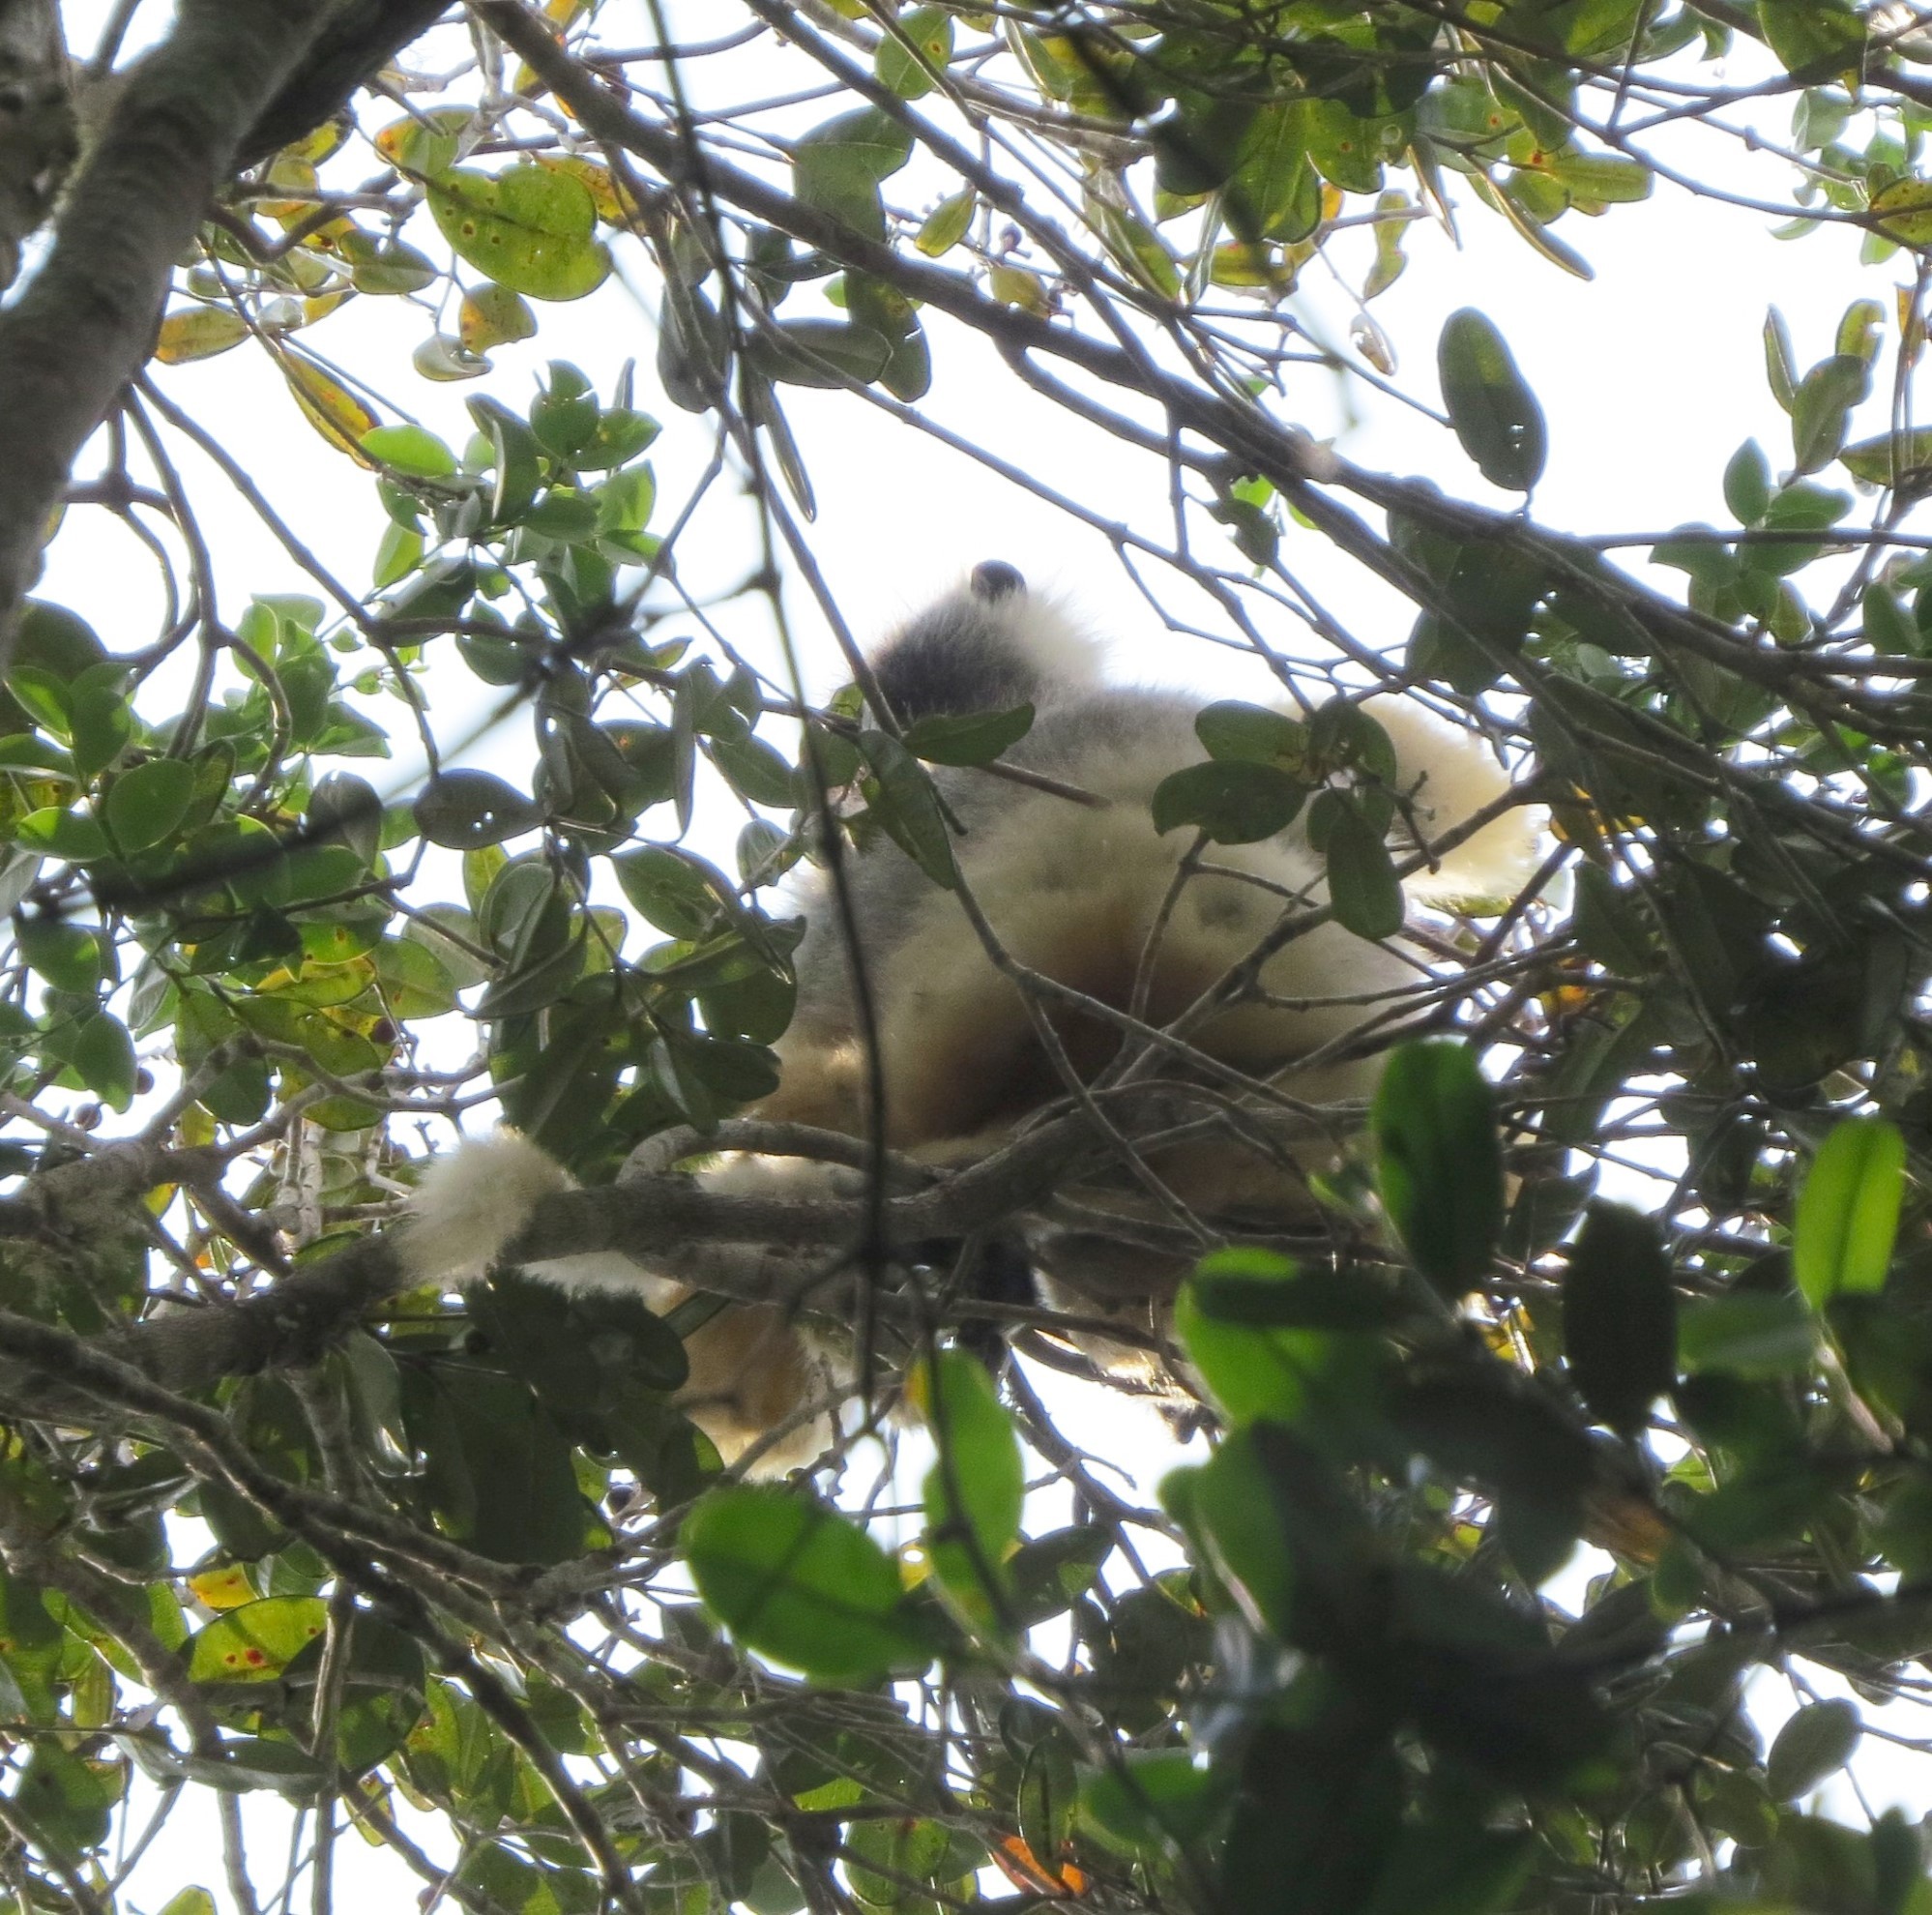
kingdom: Animalia
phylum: Chordata
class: Mammalia
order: Primates
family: Indriidae
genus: Propithecus
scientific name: Propithecus diadema
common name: Diademed sifaka
